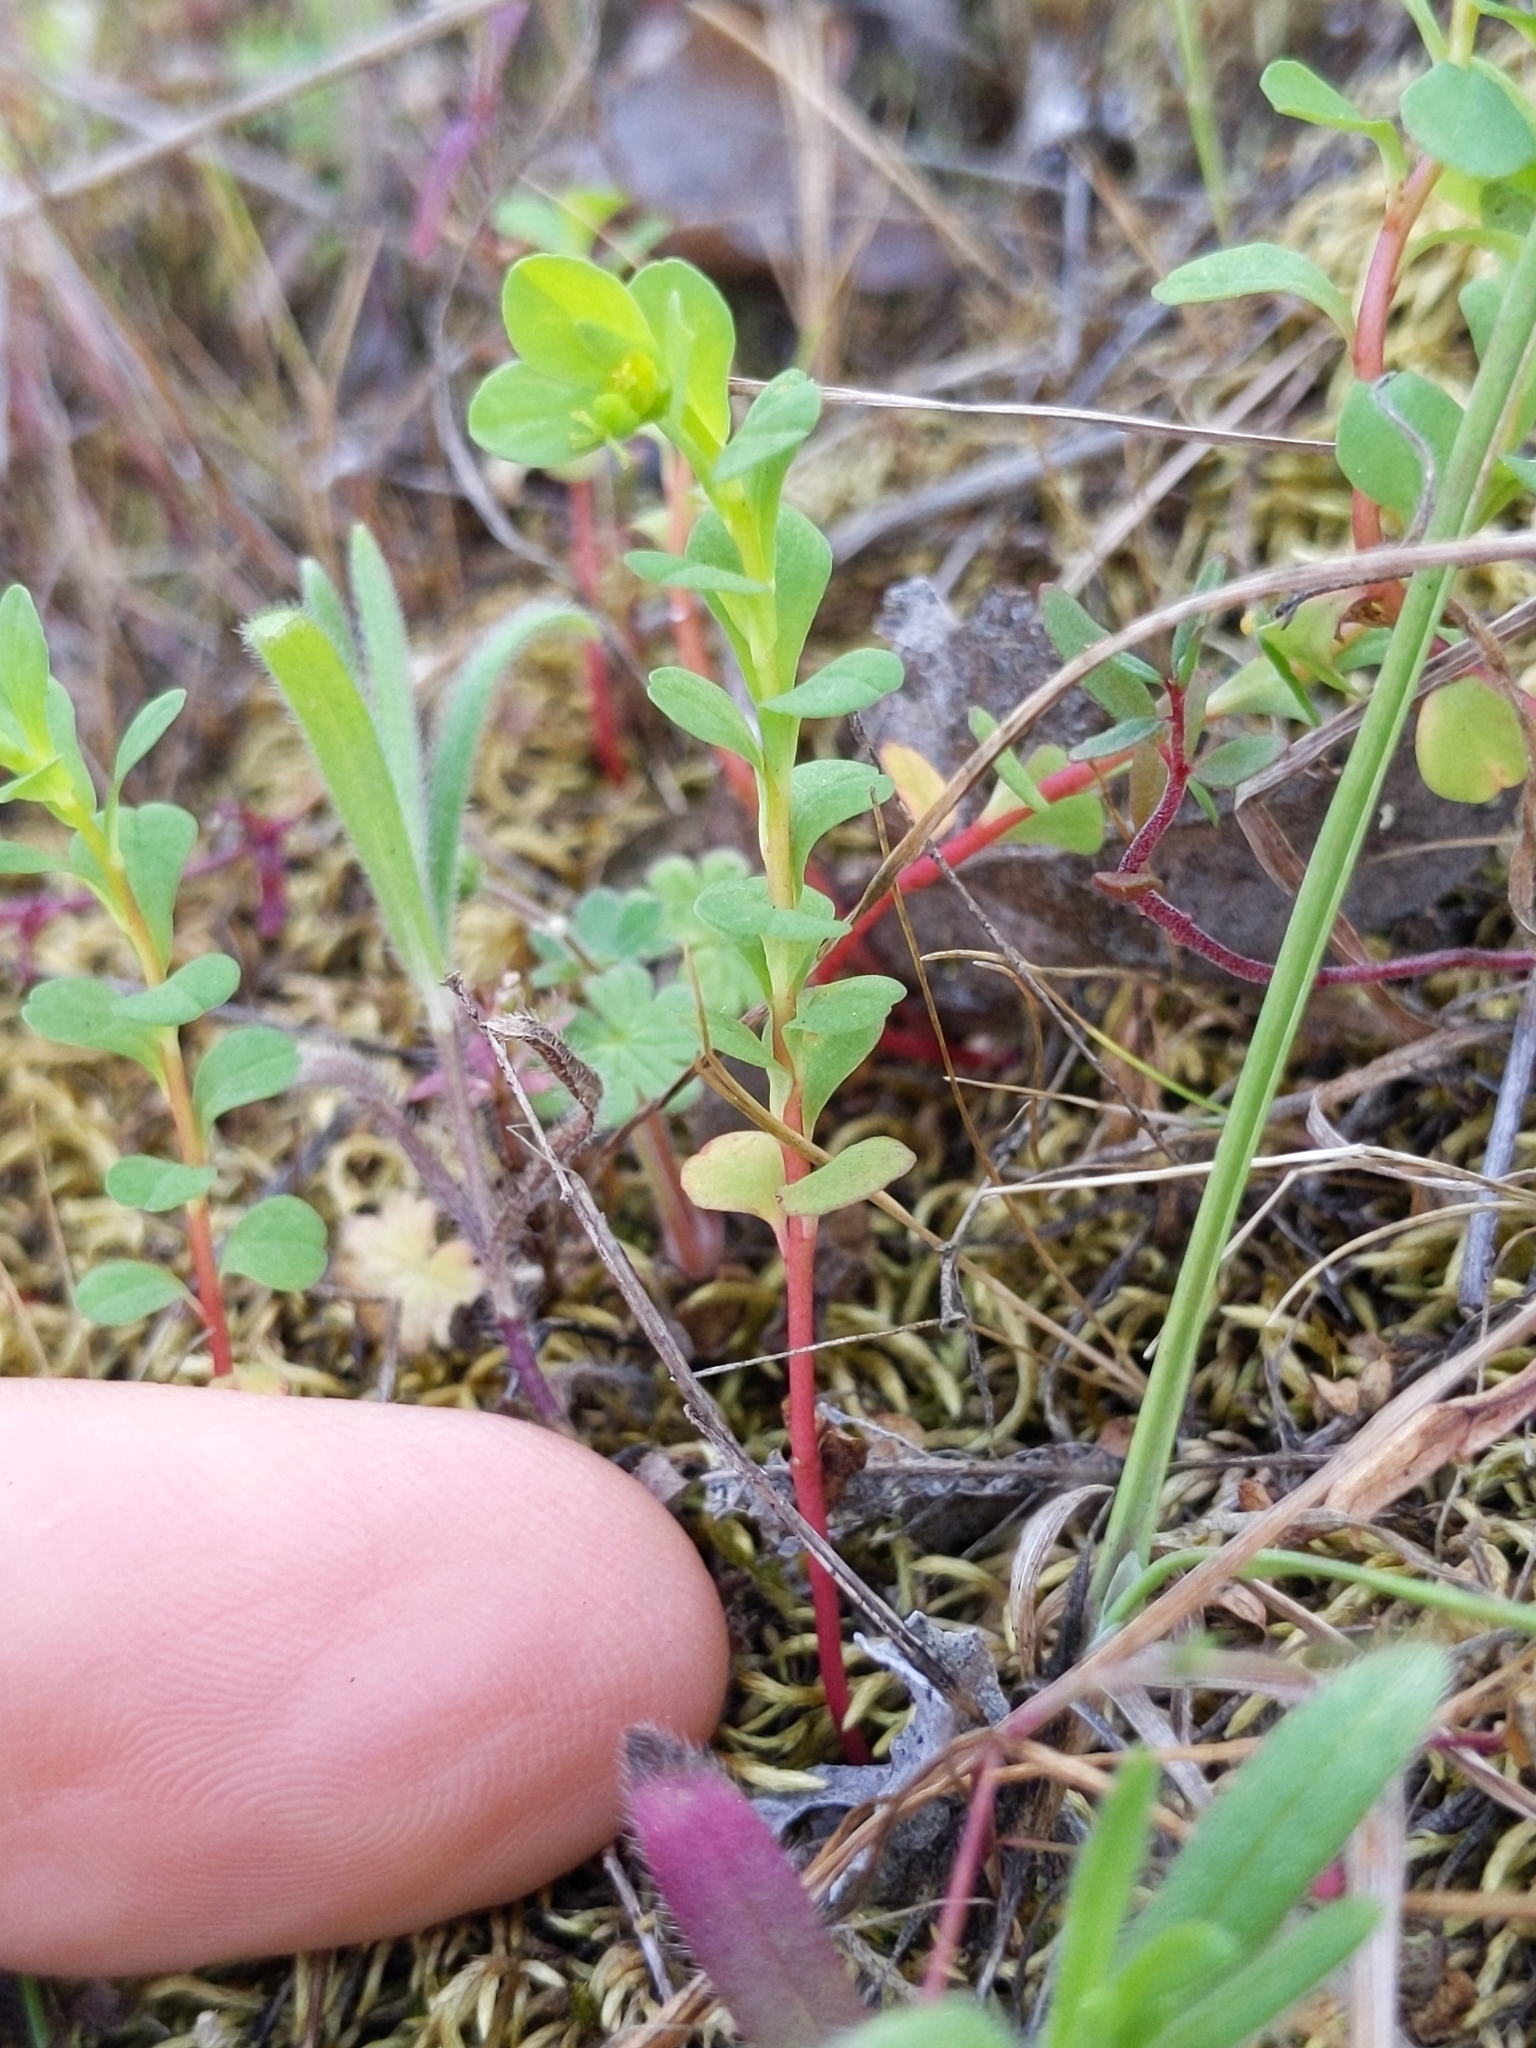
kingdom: Plantae
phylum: Tracheophyta
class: Magnoliopsida
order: Malpighiales
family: Euphorbiaceae
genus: Euphorbia
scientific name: Euphorbia spathulata
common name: Blunt spurge
